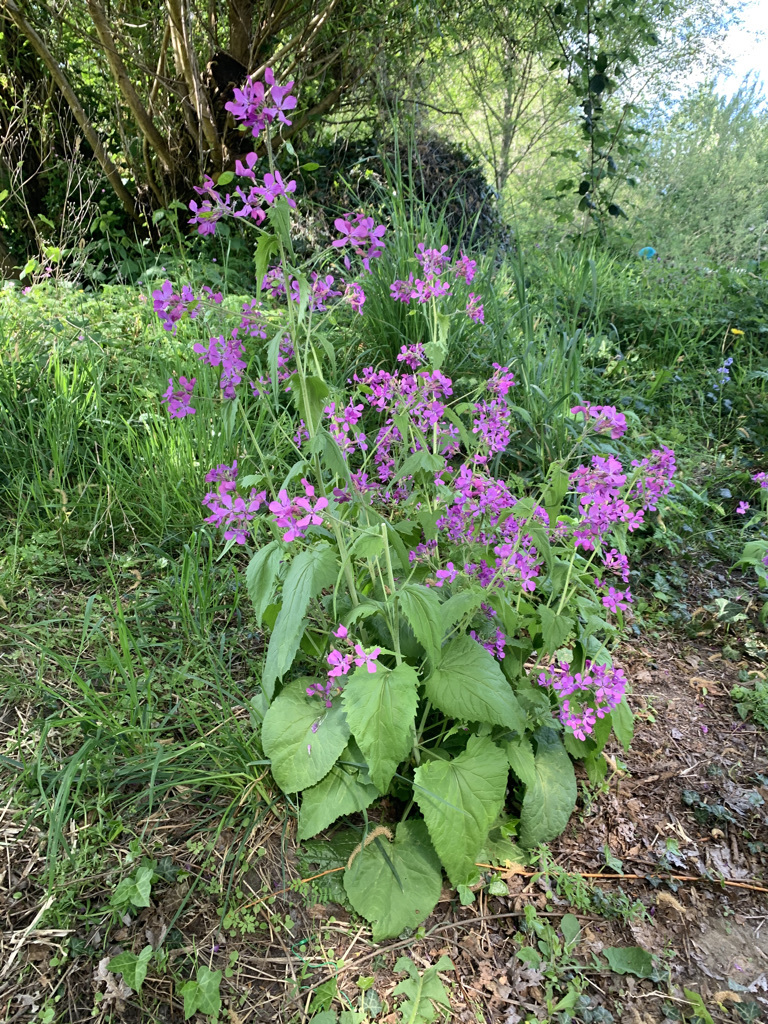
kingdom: Plantae
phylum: Tracheophyta
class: Magnoliopsida
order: Brassicales
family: Brassicaceae
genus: Lunaria
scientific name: Lunaria annua
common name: Honesty
